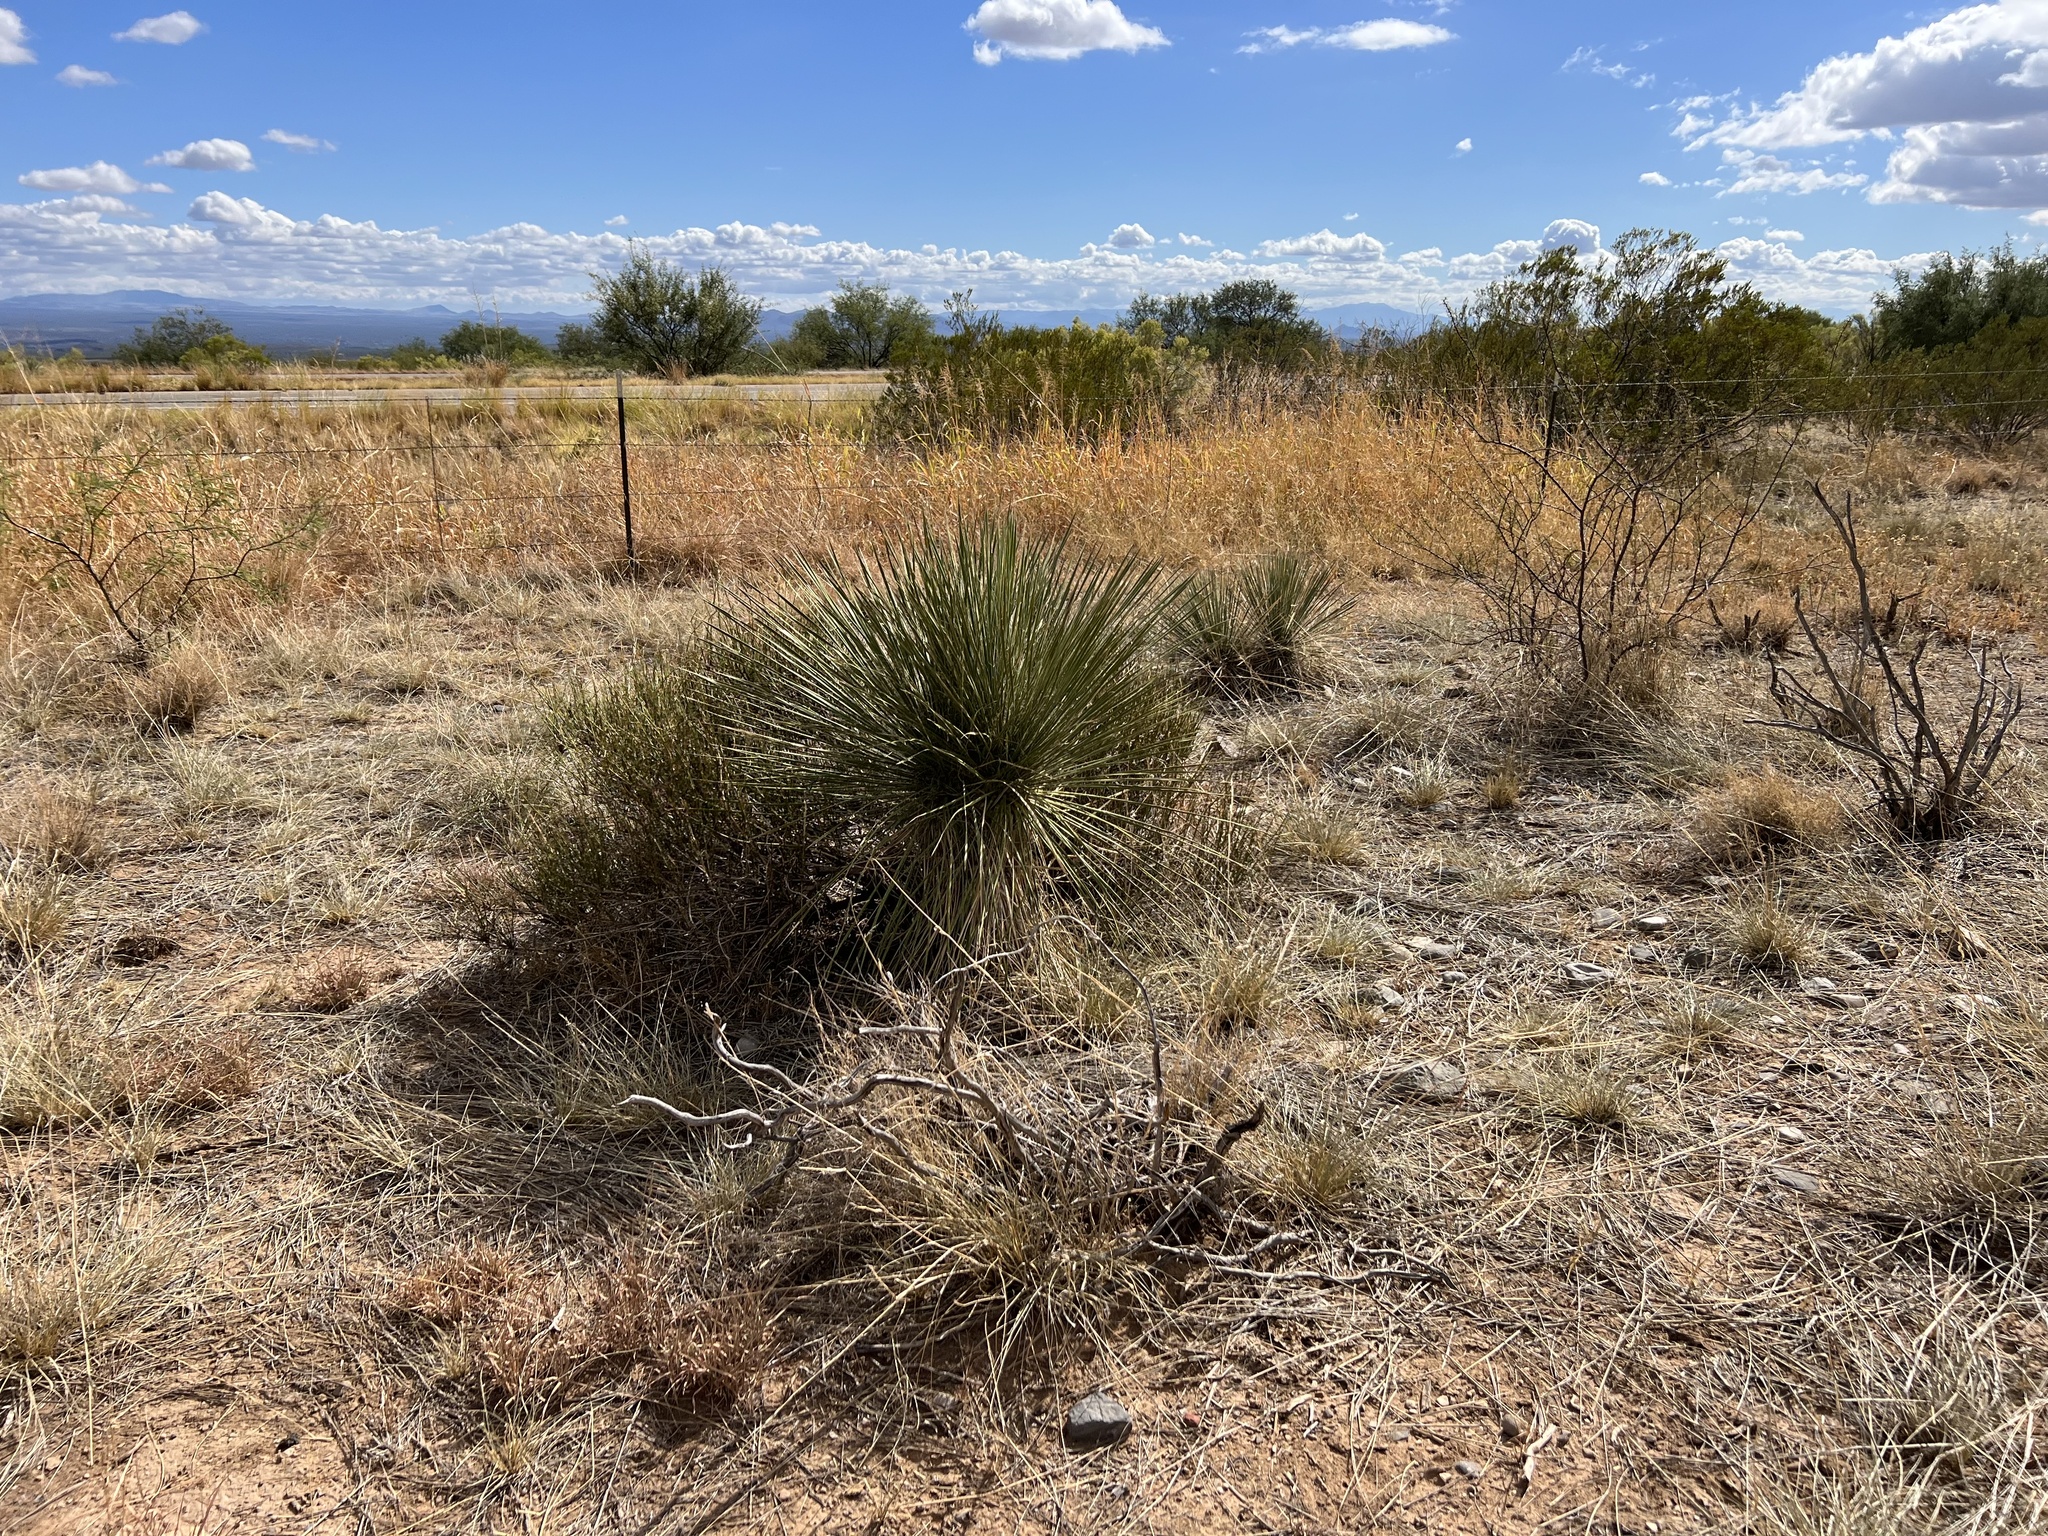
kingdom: Plantae
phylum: Tracheophyta
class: Liliopsida
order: Asparagales
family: Asparagaceae
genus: Yucca
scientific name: Yucca elata
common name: Palmella
